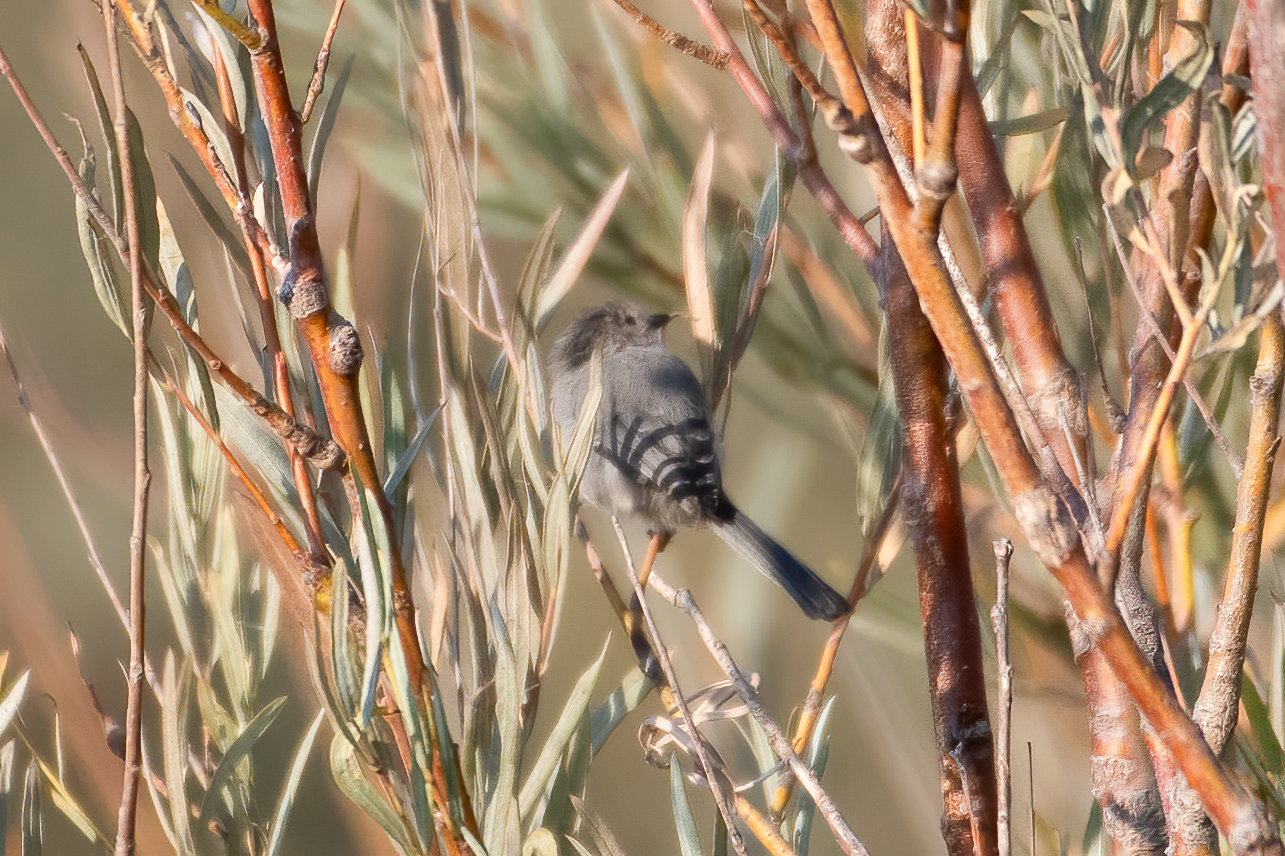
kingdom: Animalia
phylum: Chordata
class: Aves
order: Passeriformes
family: Aegithalidae
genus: Psaltriparus
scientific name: Psaltriparus minimus
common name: American bushtit
